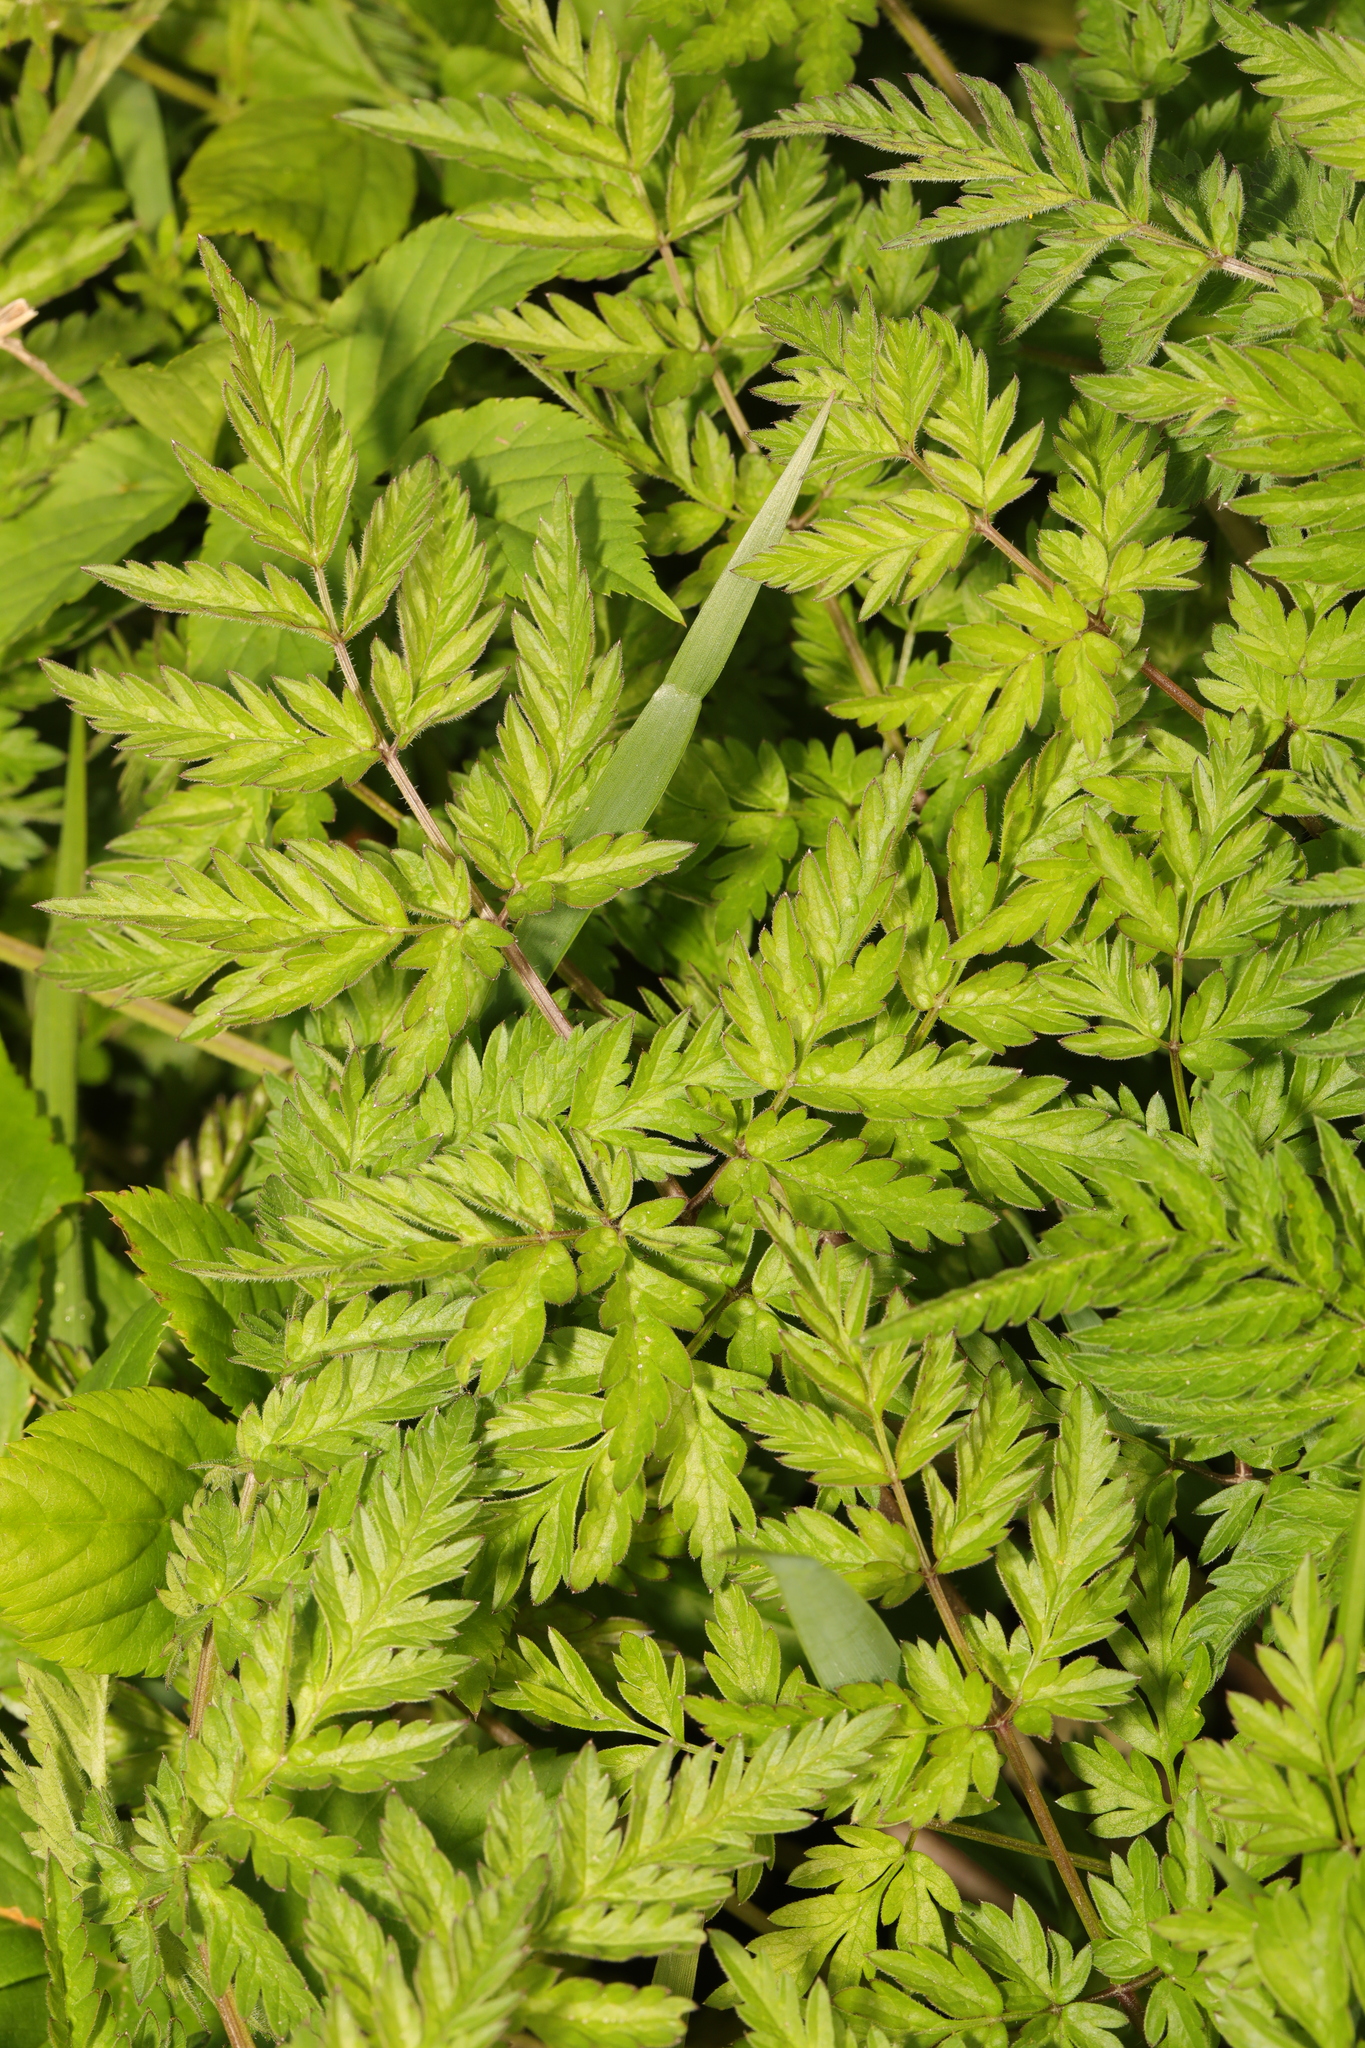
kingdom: Plantae
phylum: Tracheophyta
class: Magnoliopsida
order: Apiales
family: Apiaceae
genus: Anthriscus
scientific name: Anthriscus sylvestris
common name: Cow parsley
